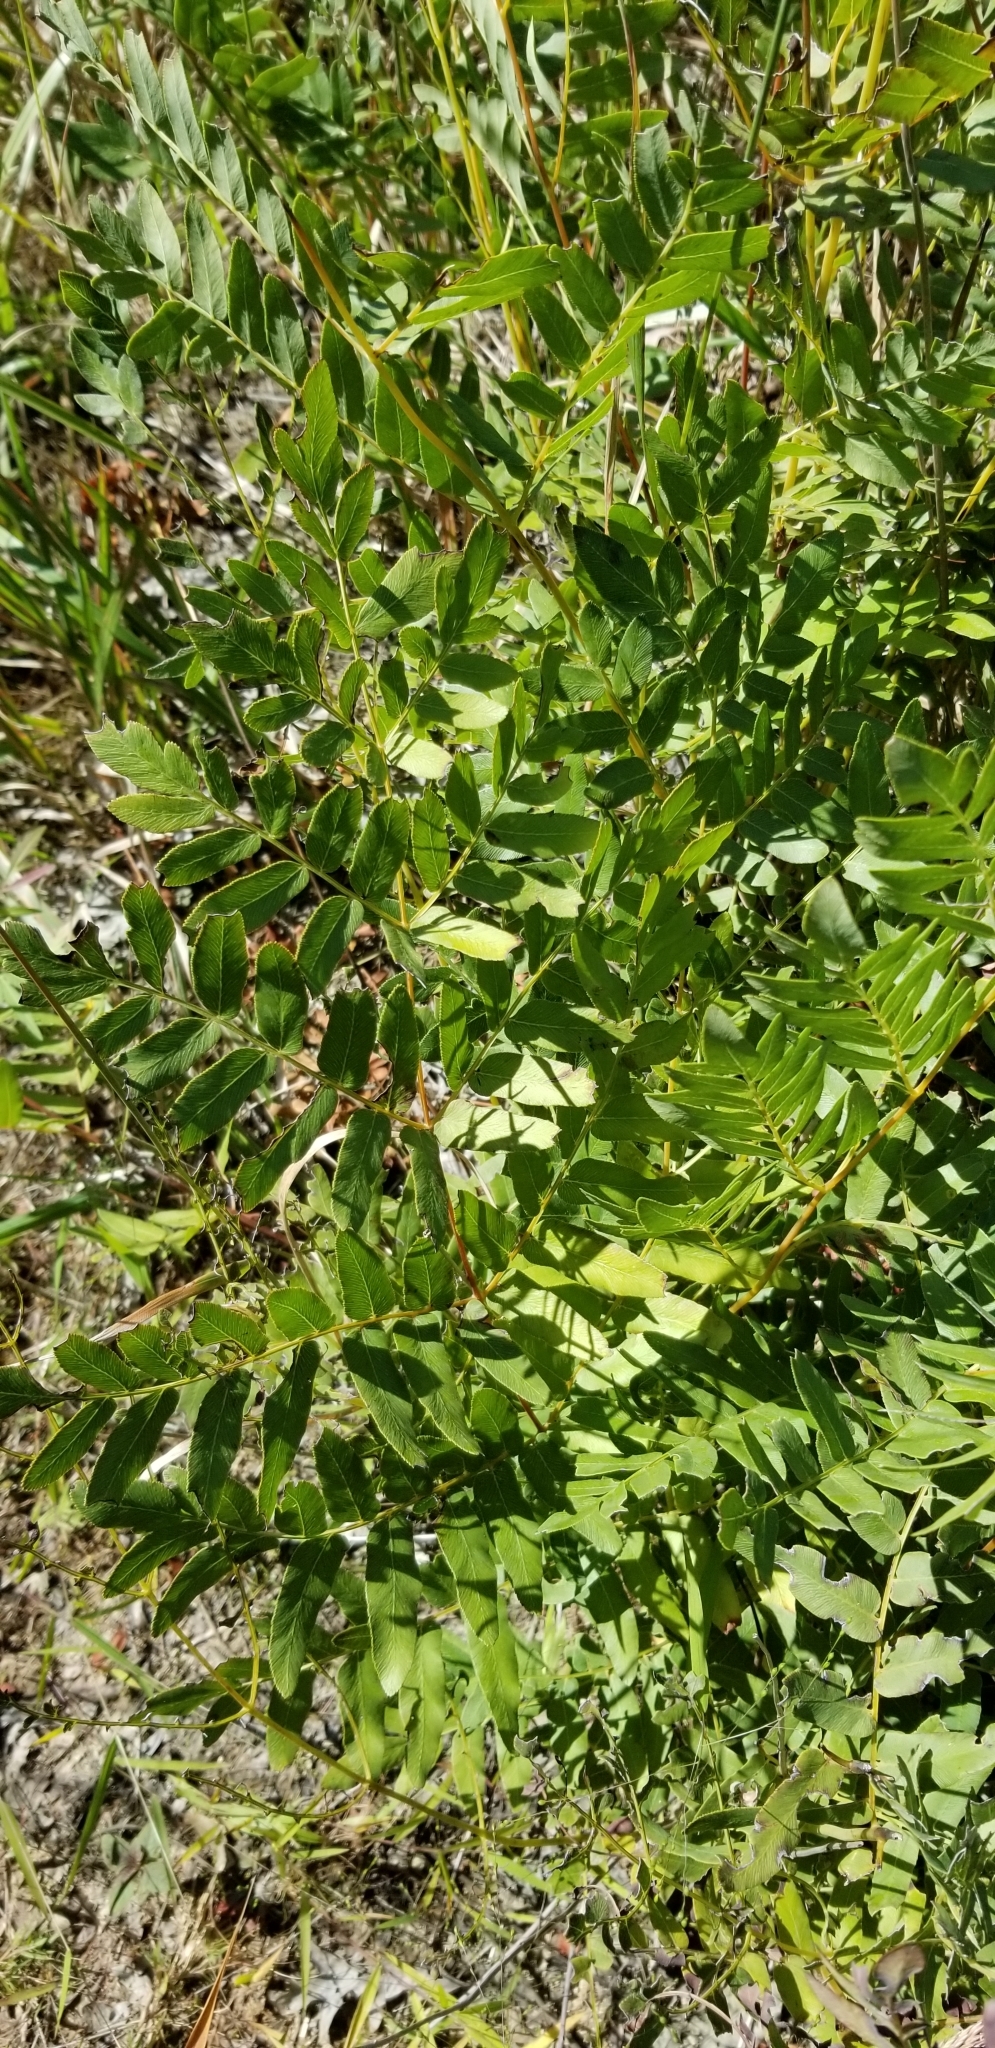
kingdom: Plantae
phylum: Tracheophyta
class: Polypodiopsida
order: Osmundales
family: Osmundaceae
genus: Osmunda
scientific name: Osmunda spectabilis
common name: American royal fern
